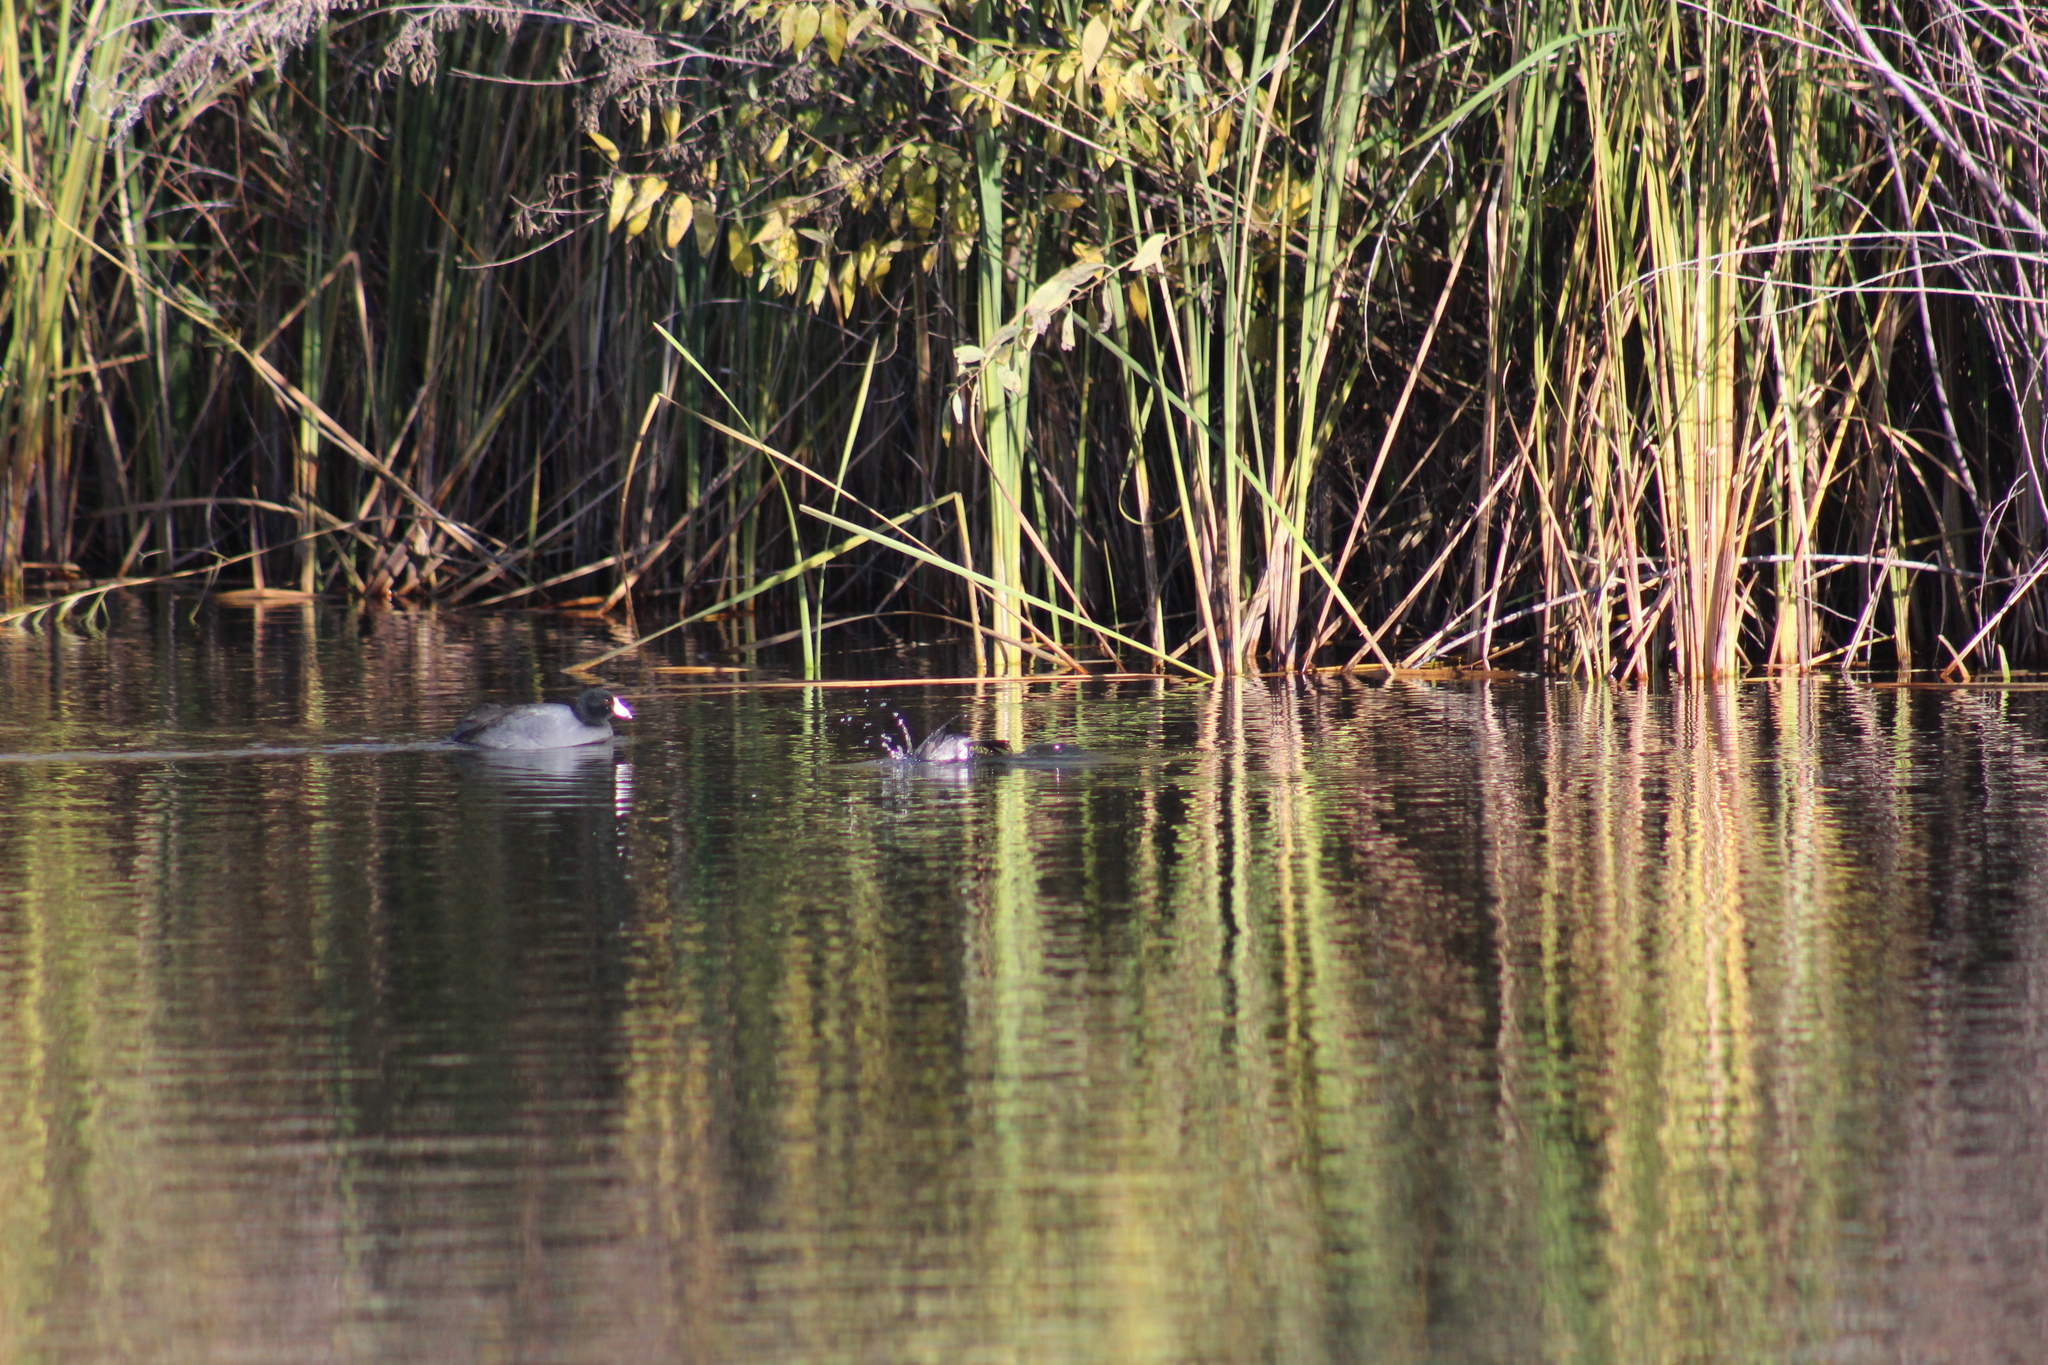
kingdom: Animalia
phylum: Chordata
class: Aves
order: Anseriformes
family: Anatidae
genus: Bucephala
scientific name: Bucephala albeola
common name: Bufflehead
